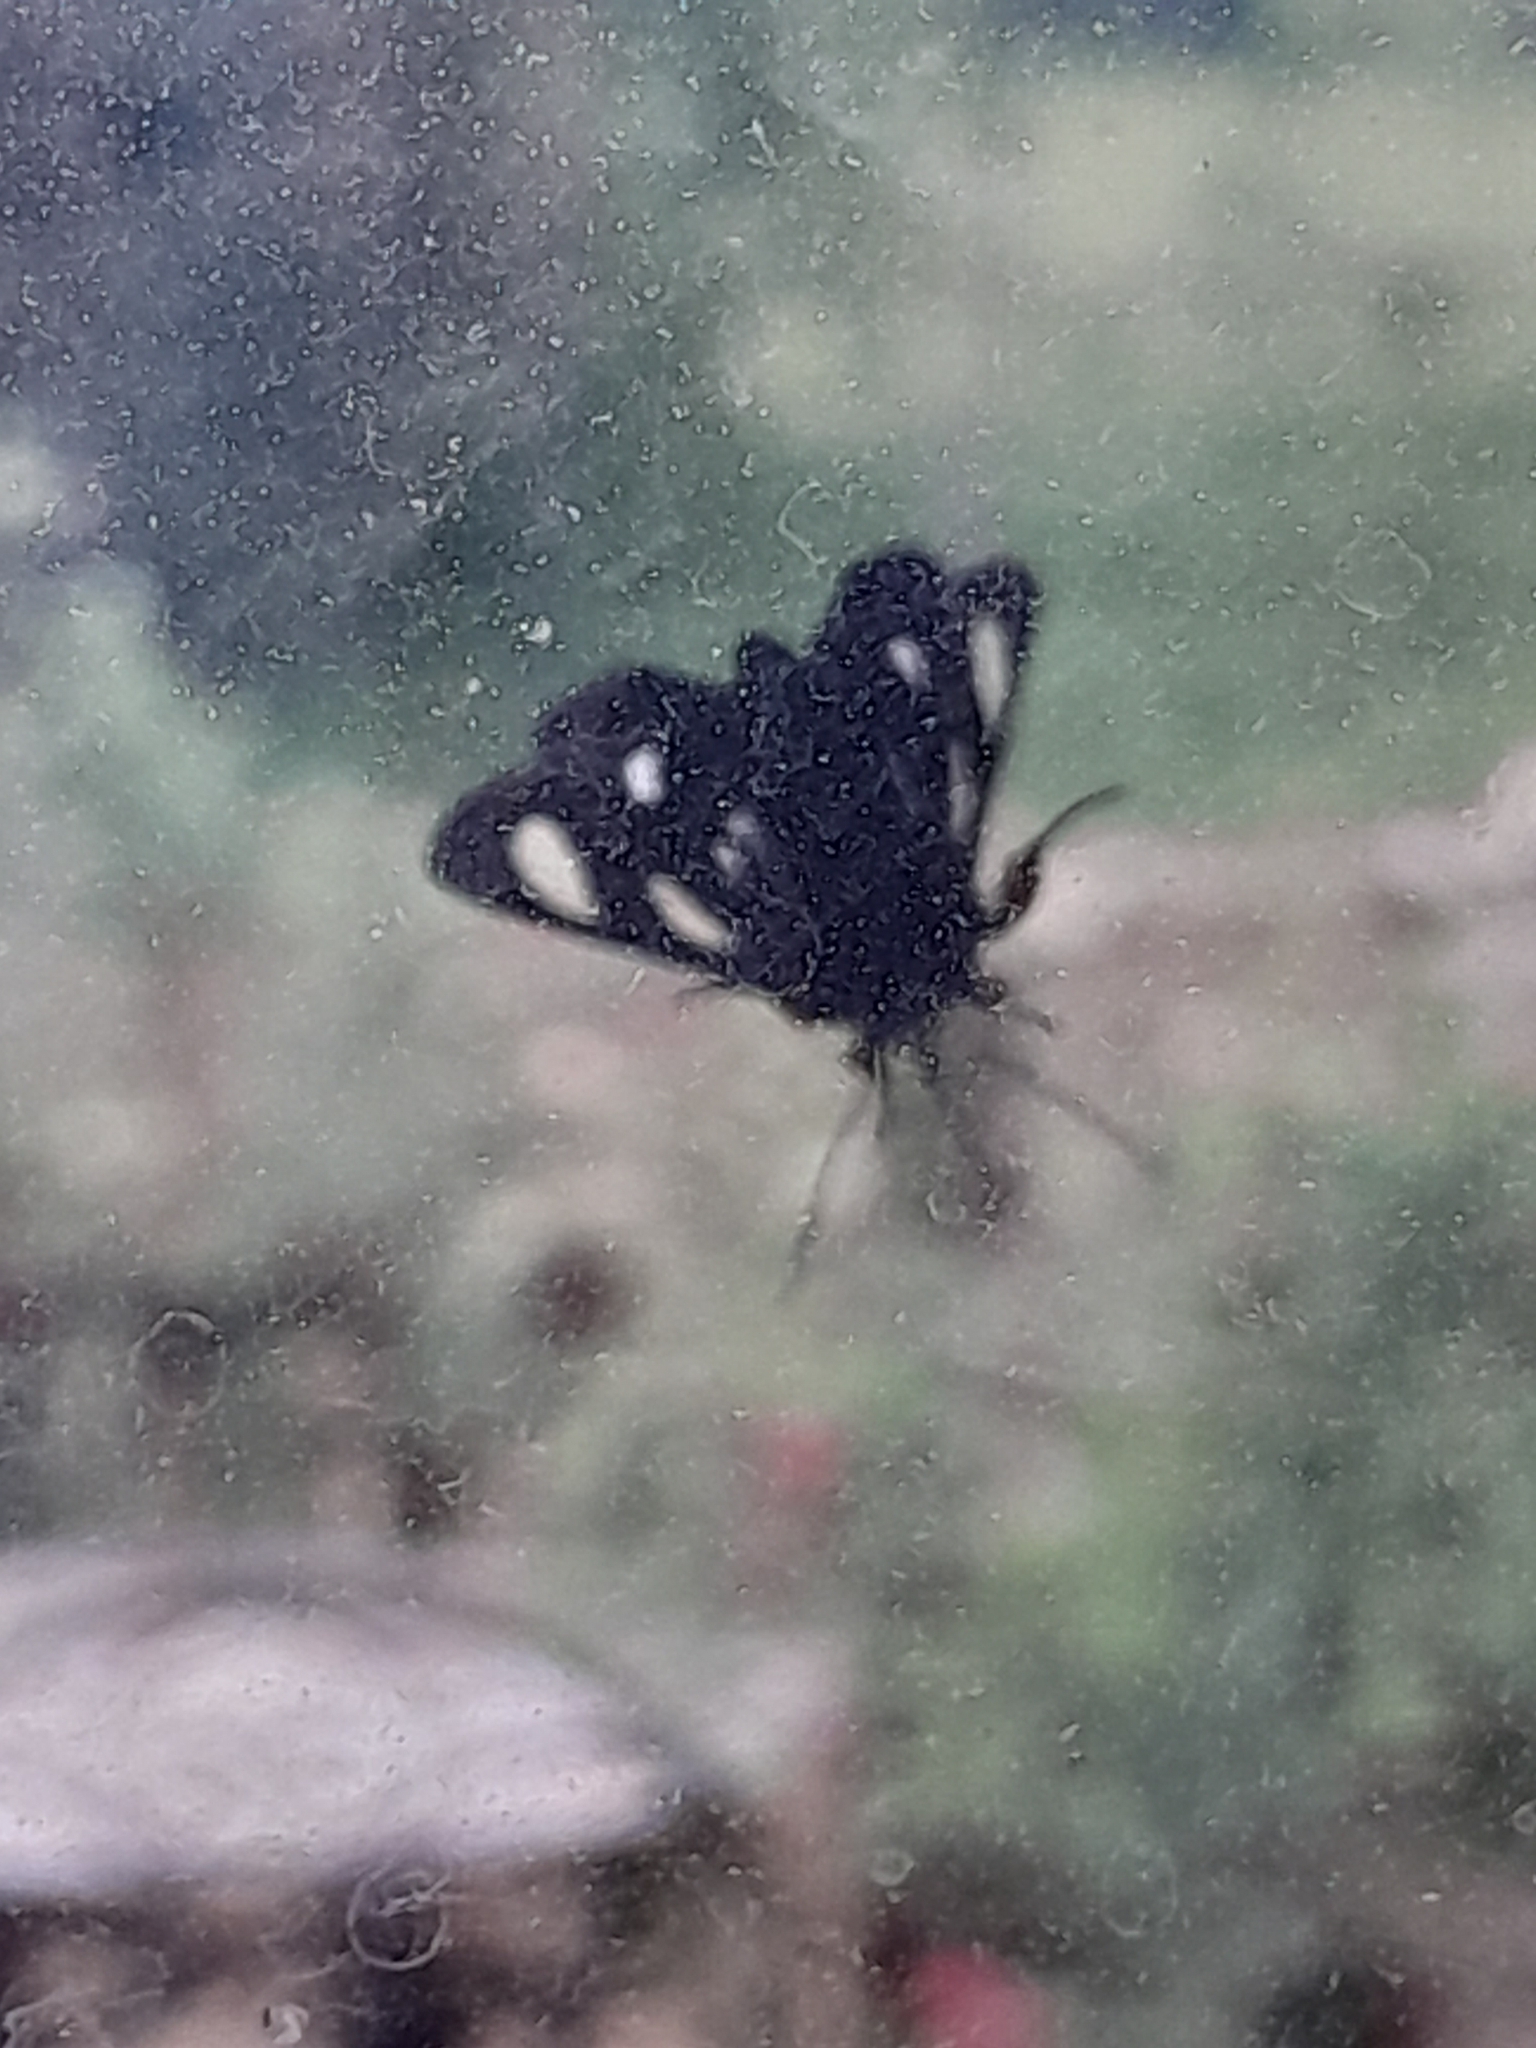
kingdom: Animalia
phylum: Arthropoda
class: Insecta
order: Lepidoptera
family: Noctuidae
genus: Alypia
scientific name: Alypia octomaculata
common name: Eight-spotted forester
